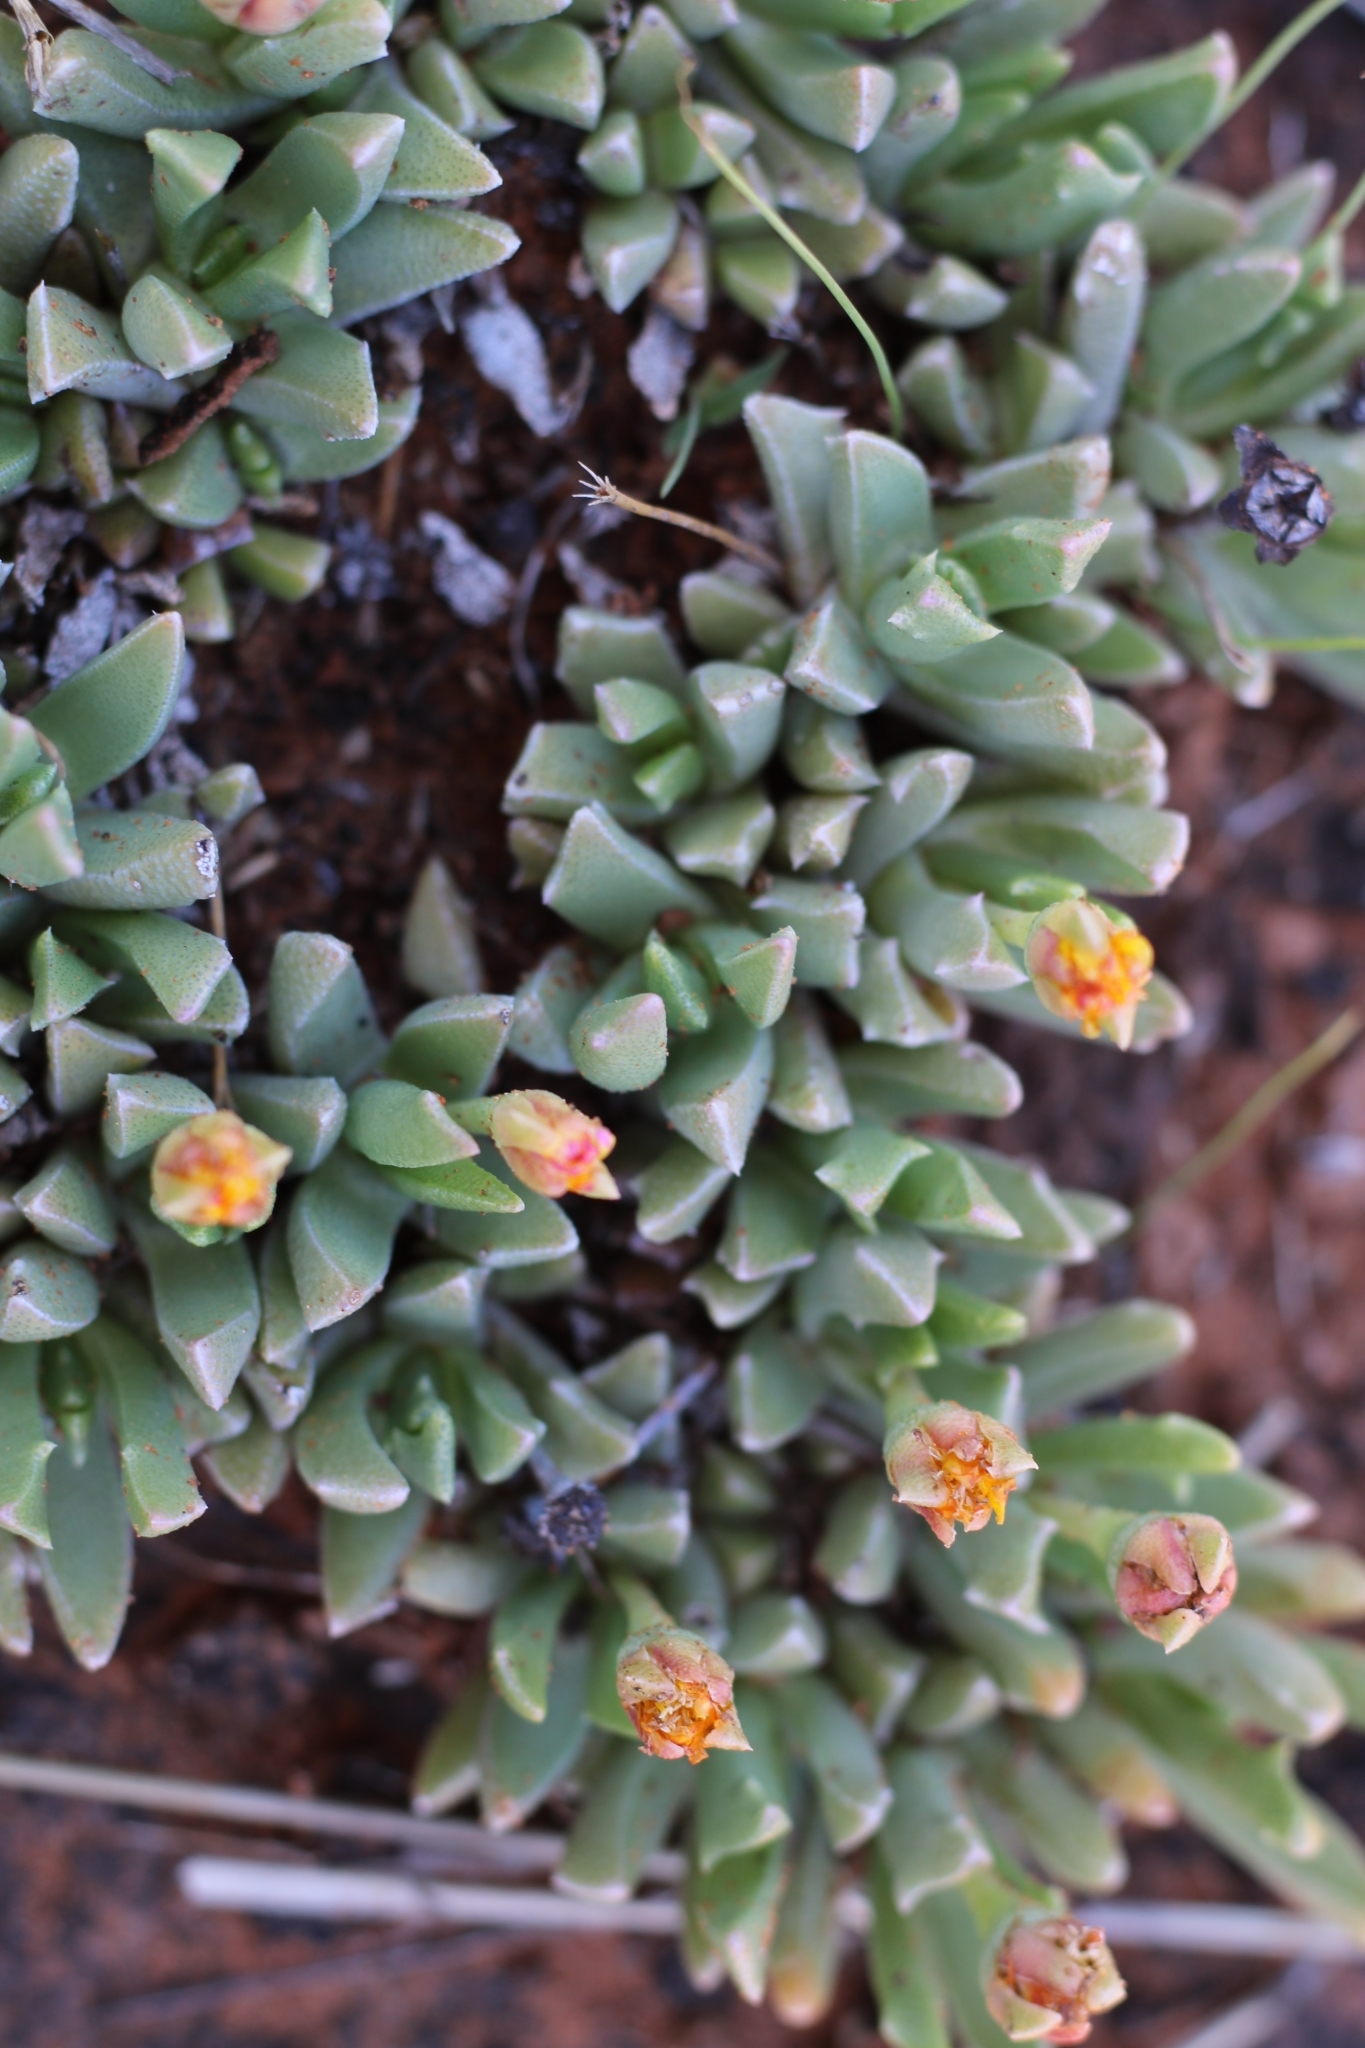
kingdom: Plantae
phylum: Tracheophyta
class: Magnoliopsida
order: Caryophyllales
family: Aizoaceae
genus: Dracophilus
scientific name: Dracophilus Chasmatophyllum musculinum
